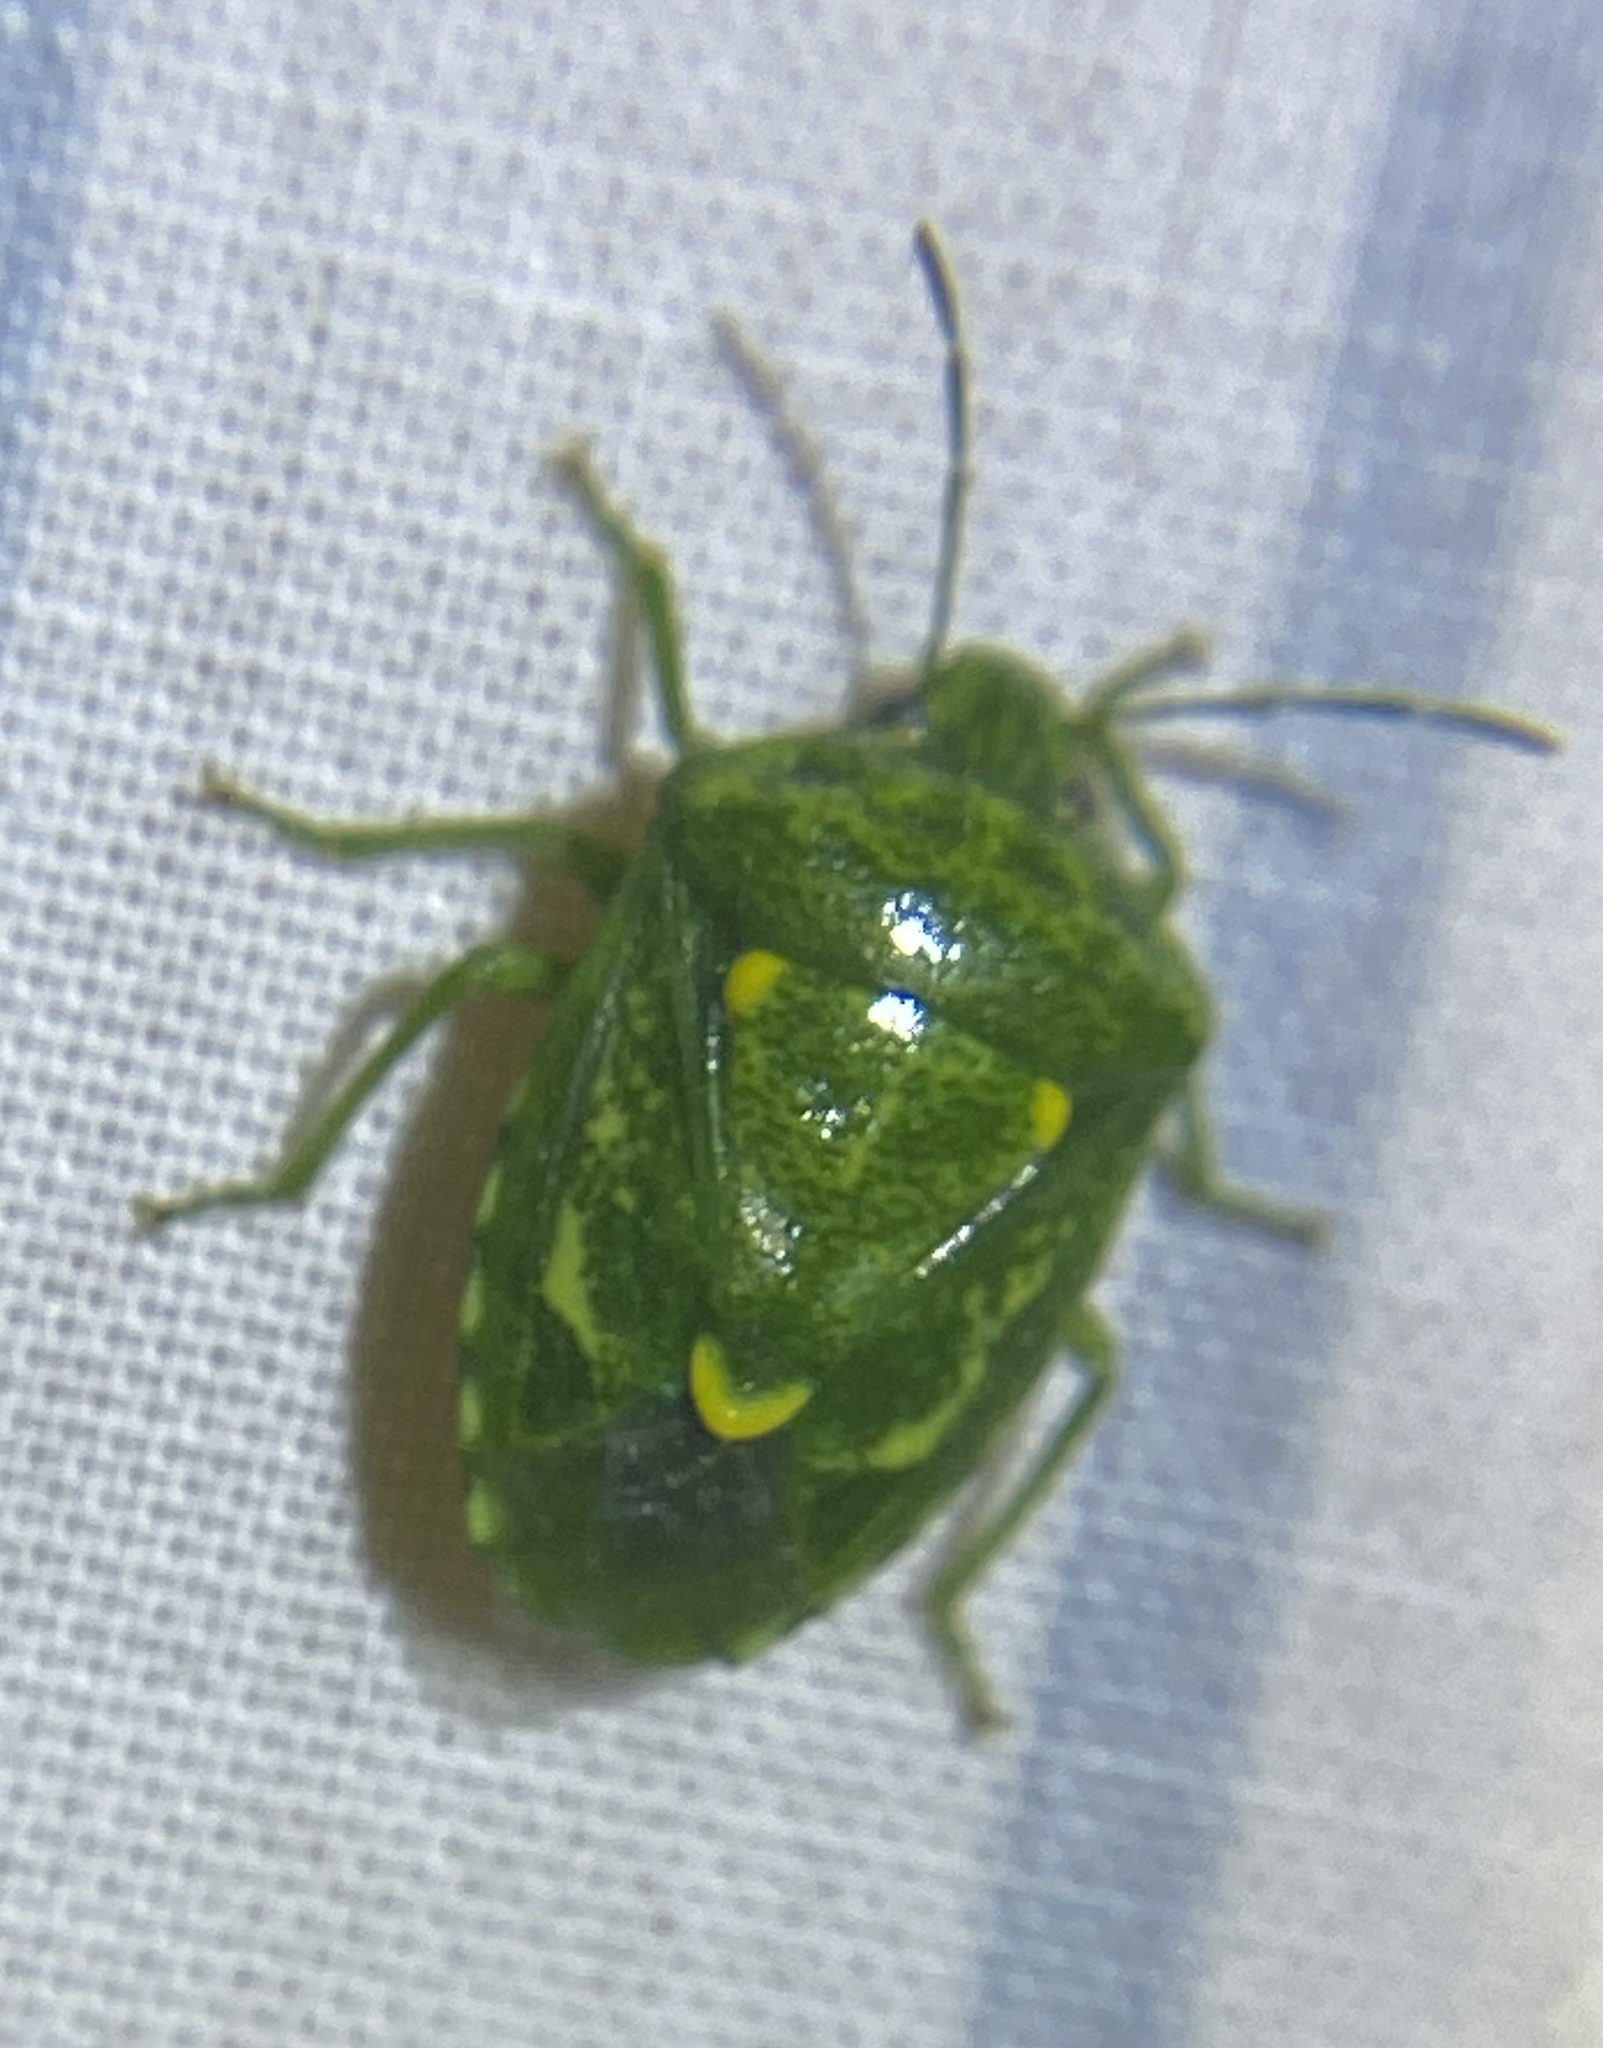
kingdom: Animalia
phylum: Arthropoda
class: Insecta
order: Hemiptera
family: Pentatomidae
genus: Banasa
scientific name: Banasa euchlora
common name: Cedar berry bug
